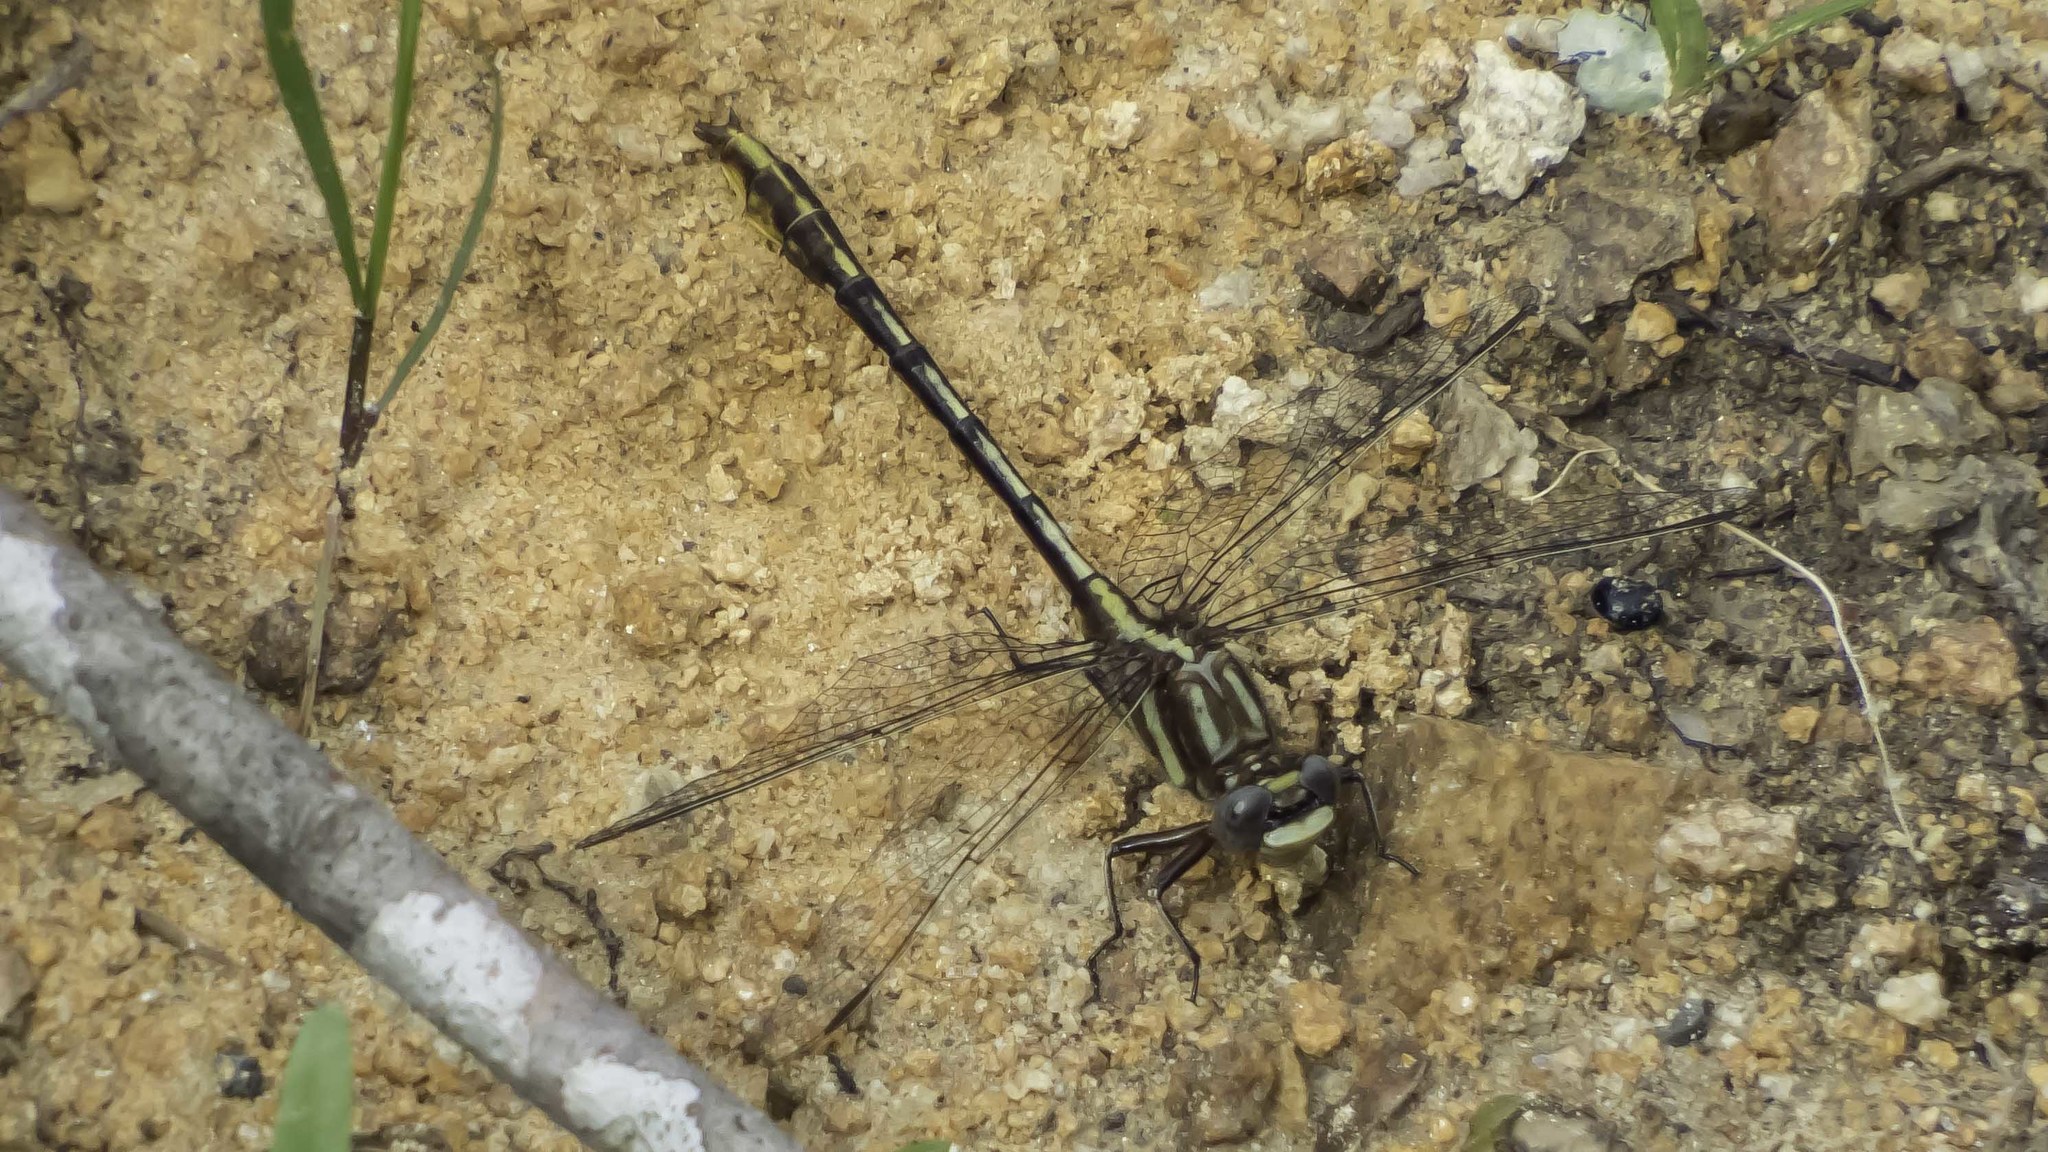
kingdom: Animalia
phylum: Arthropoda
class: Insecta
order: Odonata
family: Gomphidae
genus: Phanogomphus
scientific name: Phanogomphus exilis
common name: Lancet clubtail
